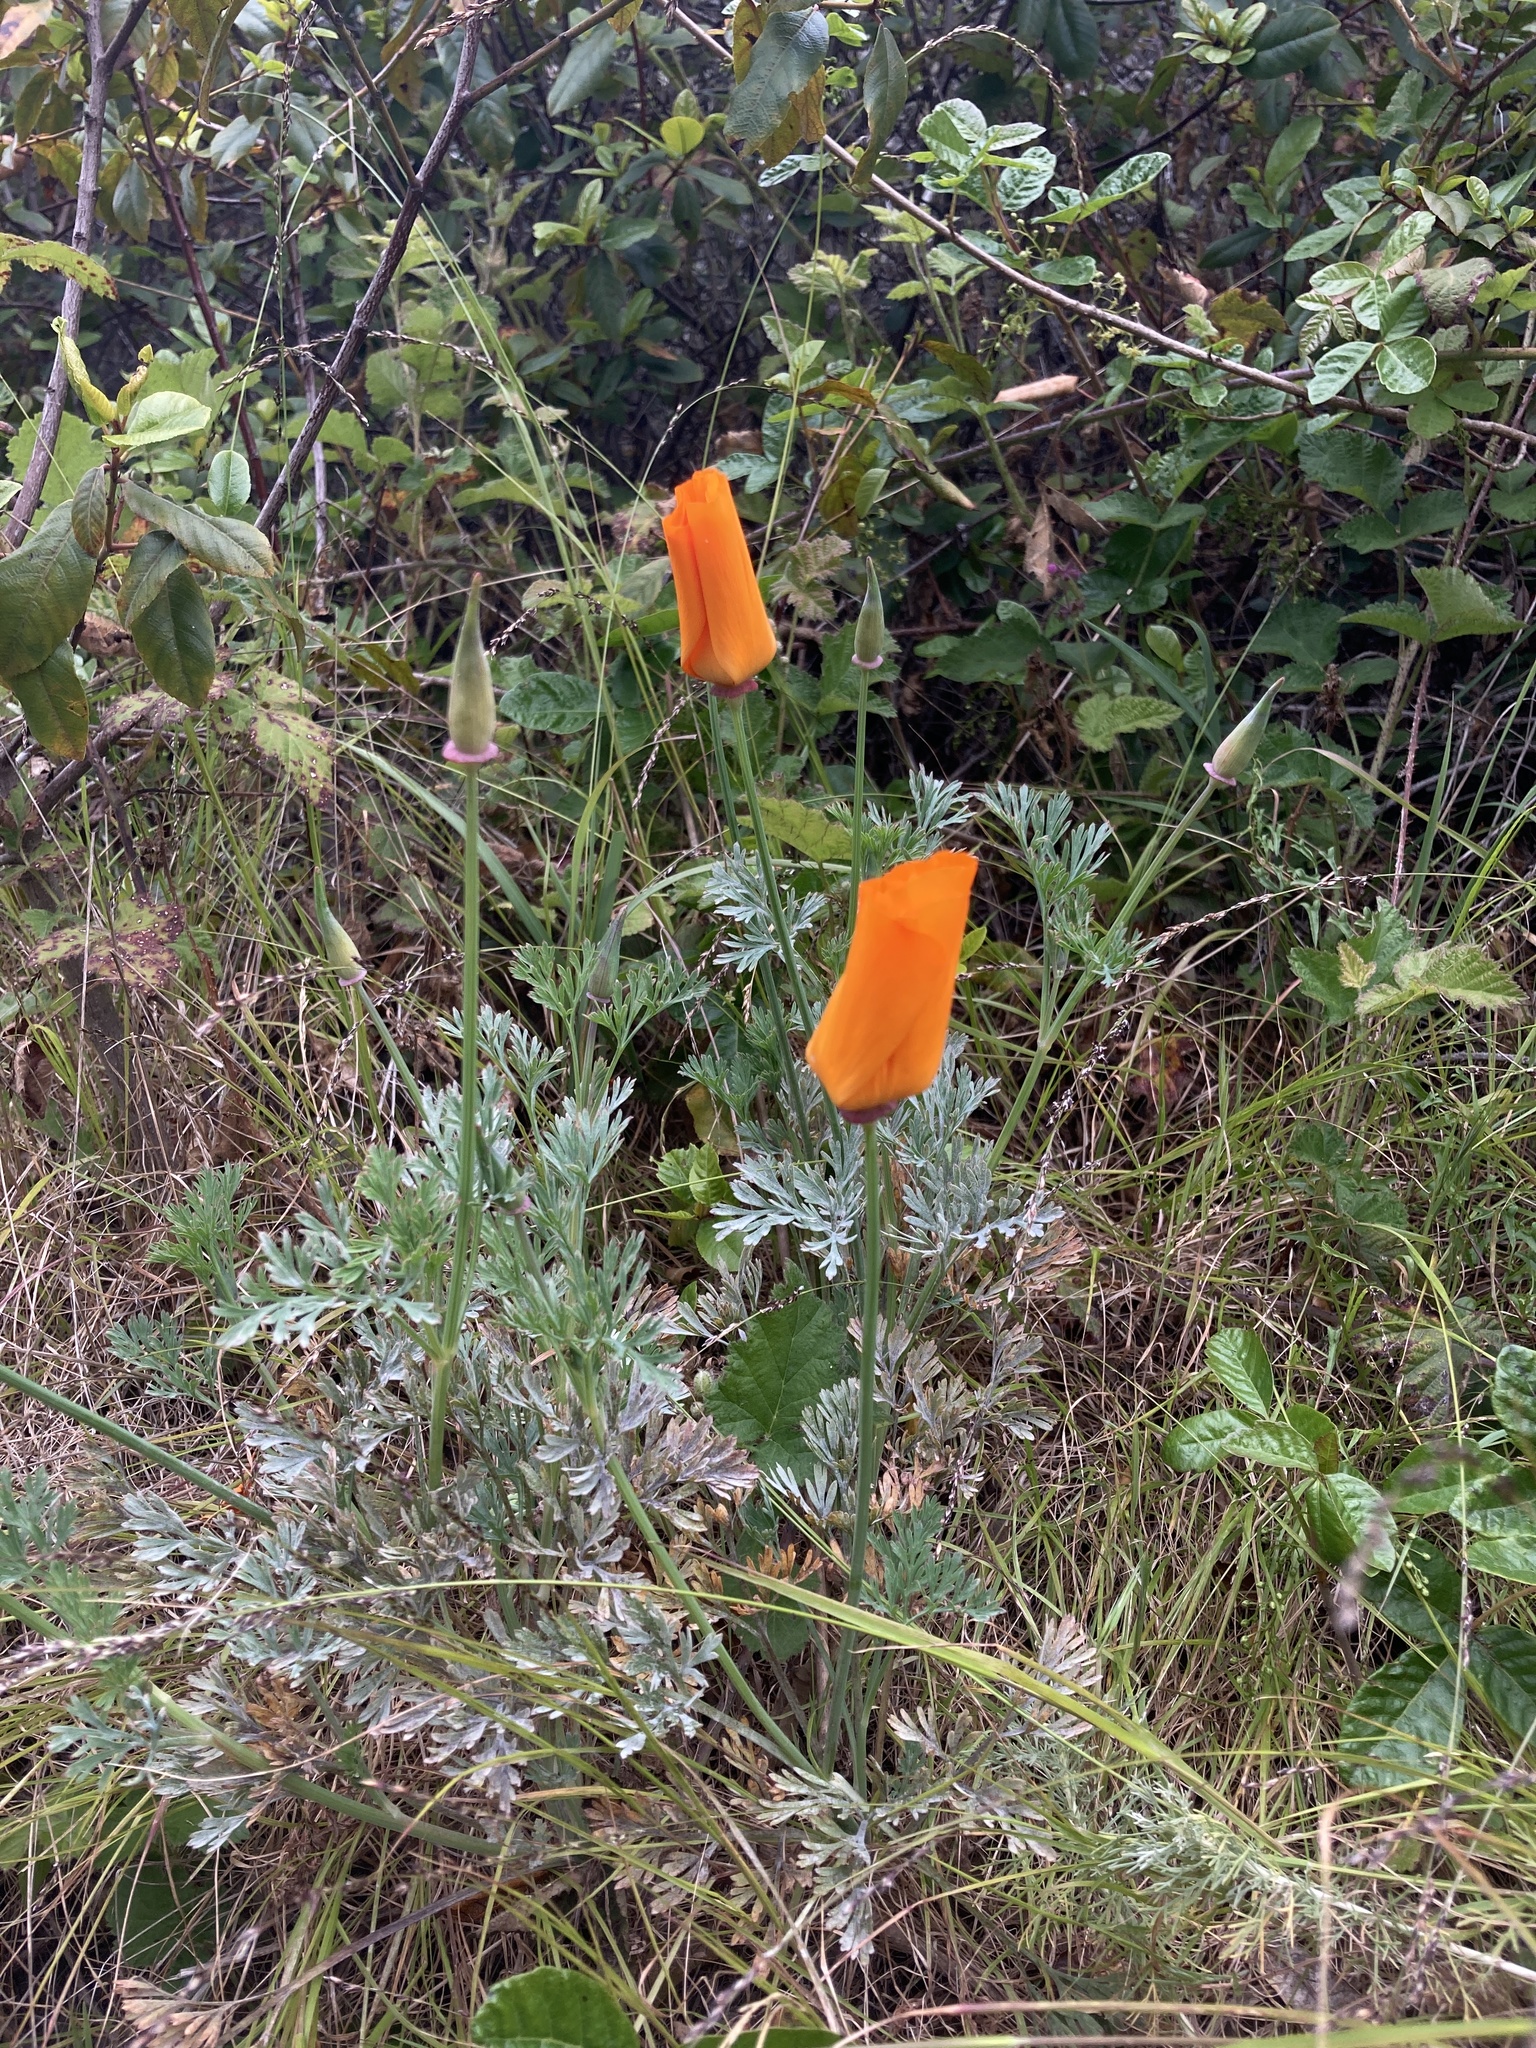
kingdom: Plantae
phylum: Tracheophyta
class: Magnoliopsida
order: Ranunculales
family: Papaveraceae
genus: Eschscholzia
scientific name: Eschscholzia californica
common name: California poppy
